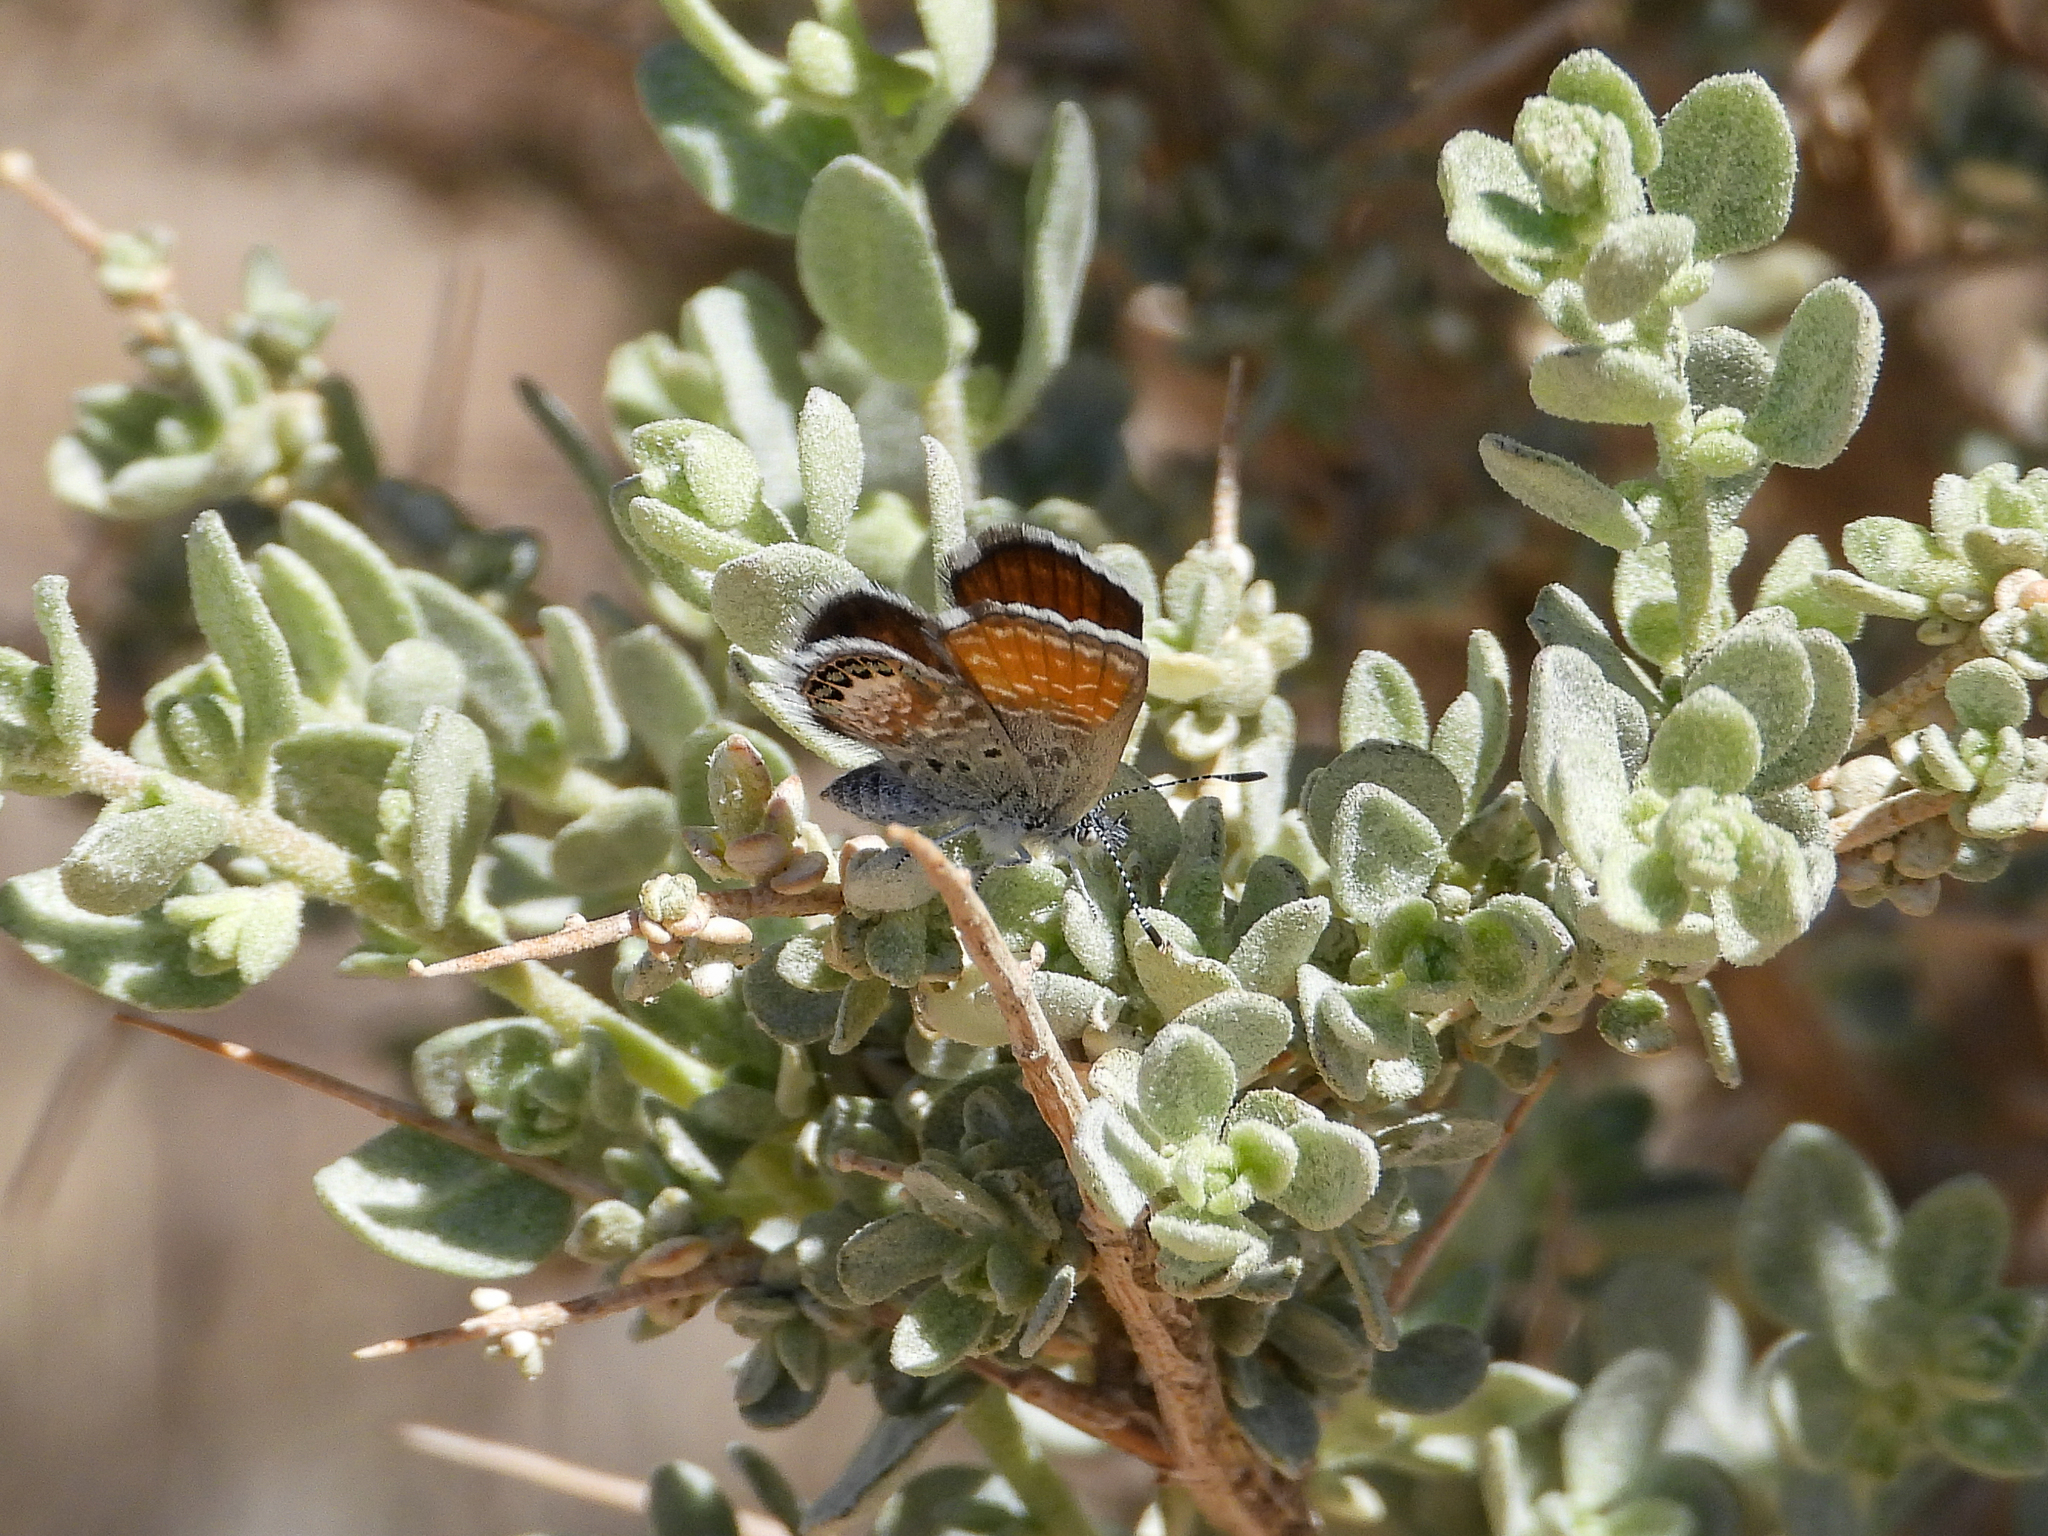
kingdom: Animalia
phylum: Arthropoda
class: Insecta
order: Lepidoptera
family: Lycaenidae
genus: Brephidium
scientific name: Brephidium exilis
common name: Pygmy blue
